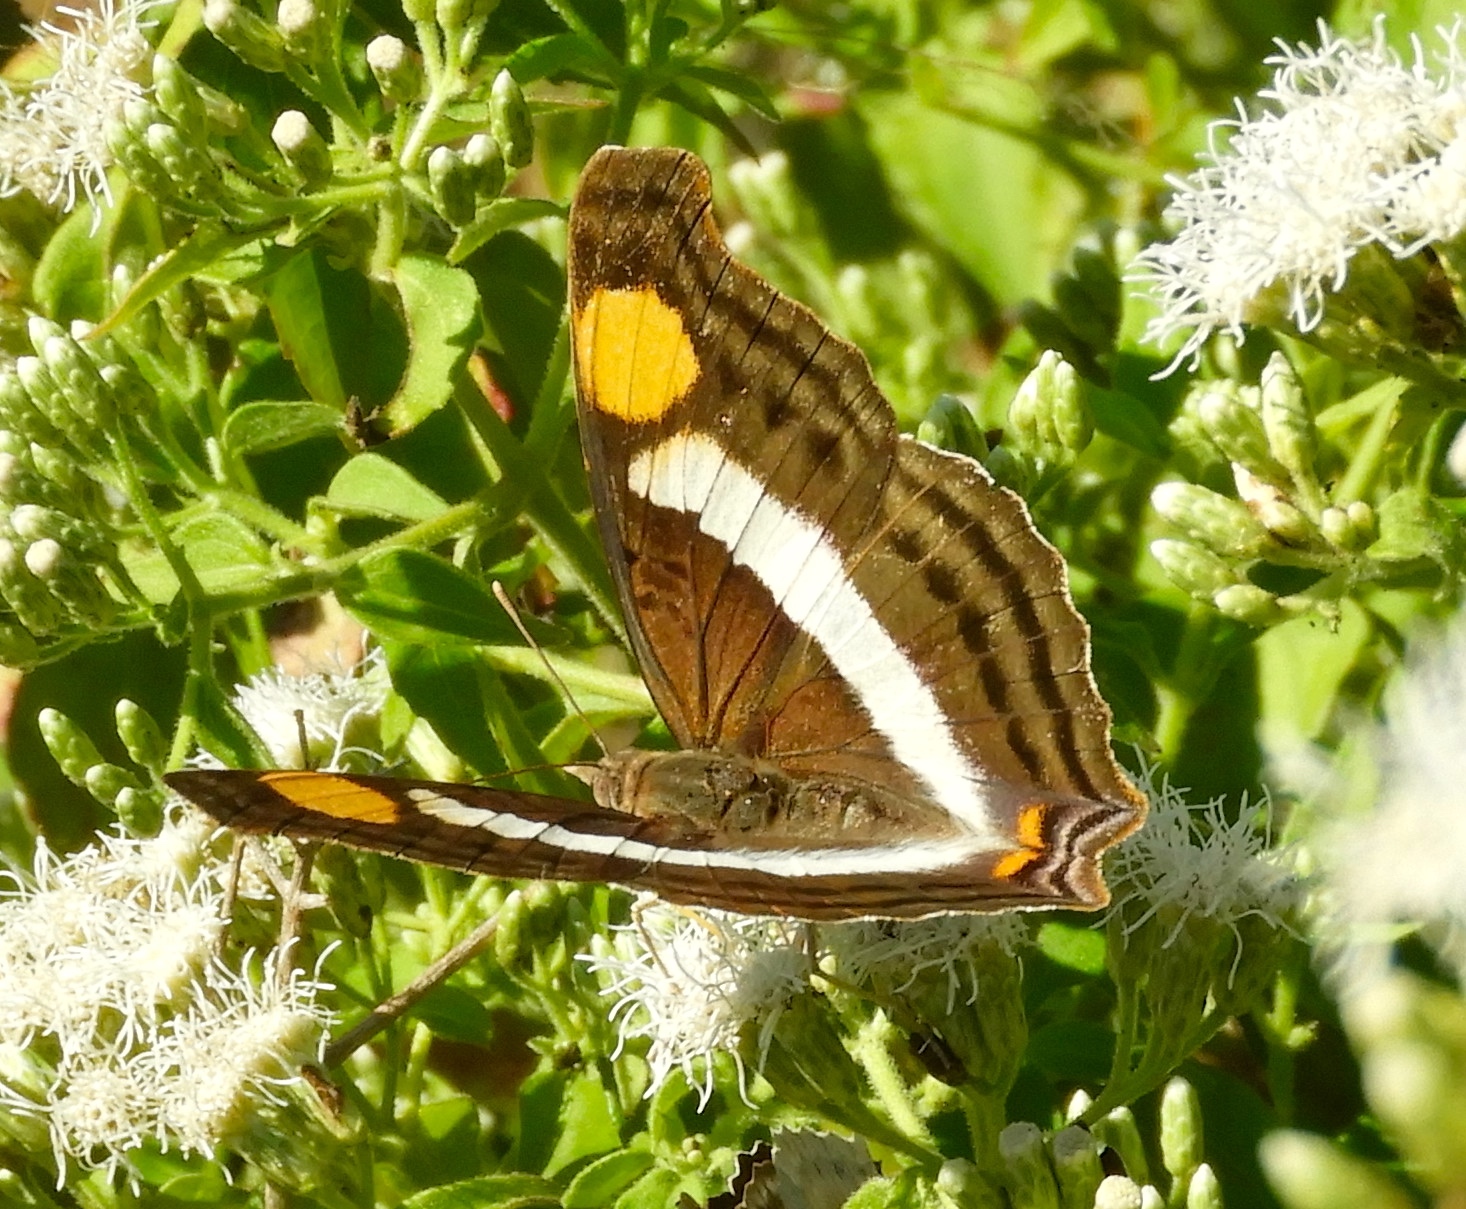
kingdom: Animalia
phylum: Arthropoda
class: Insecta
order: Lepidoptera
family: Nymphalidae
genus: Doxocopa
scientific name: Doxocopa laure
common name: Silver emperor
